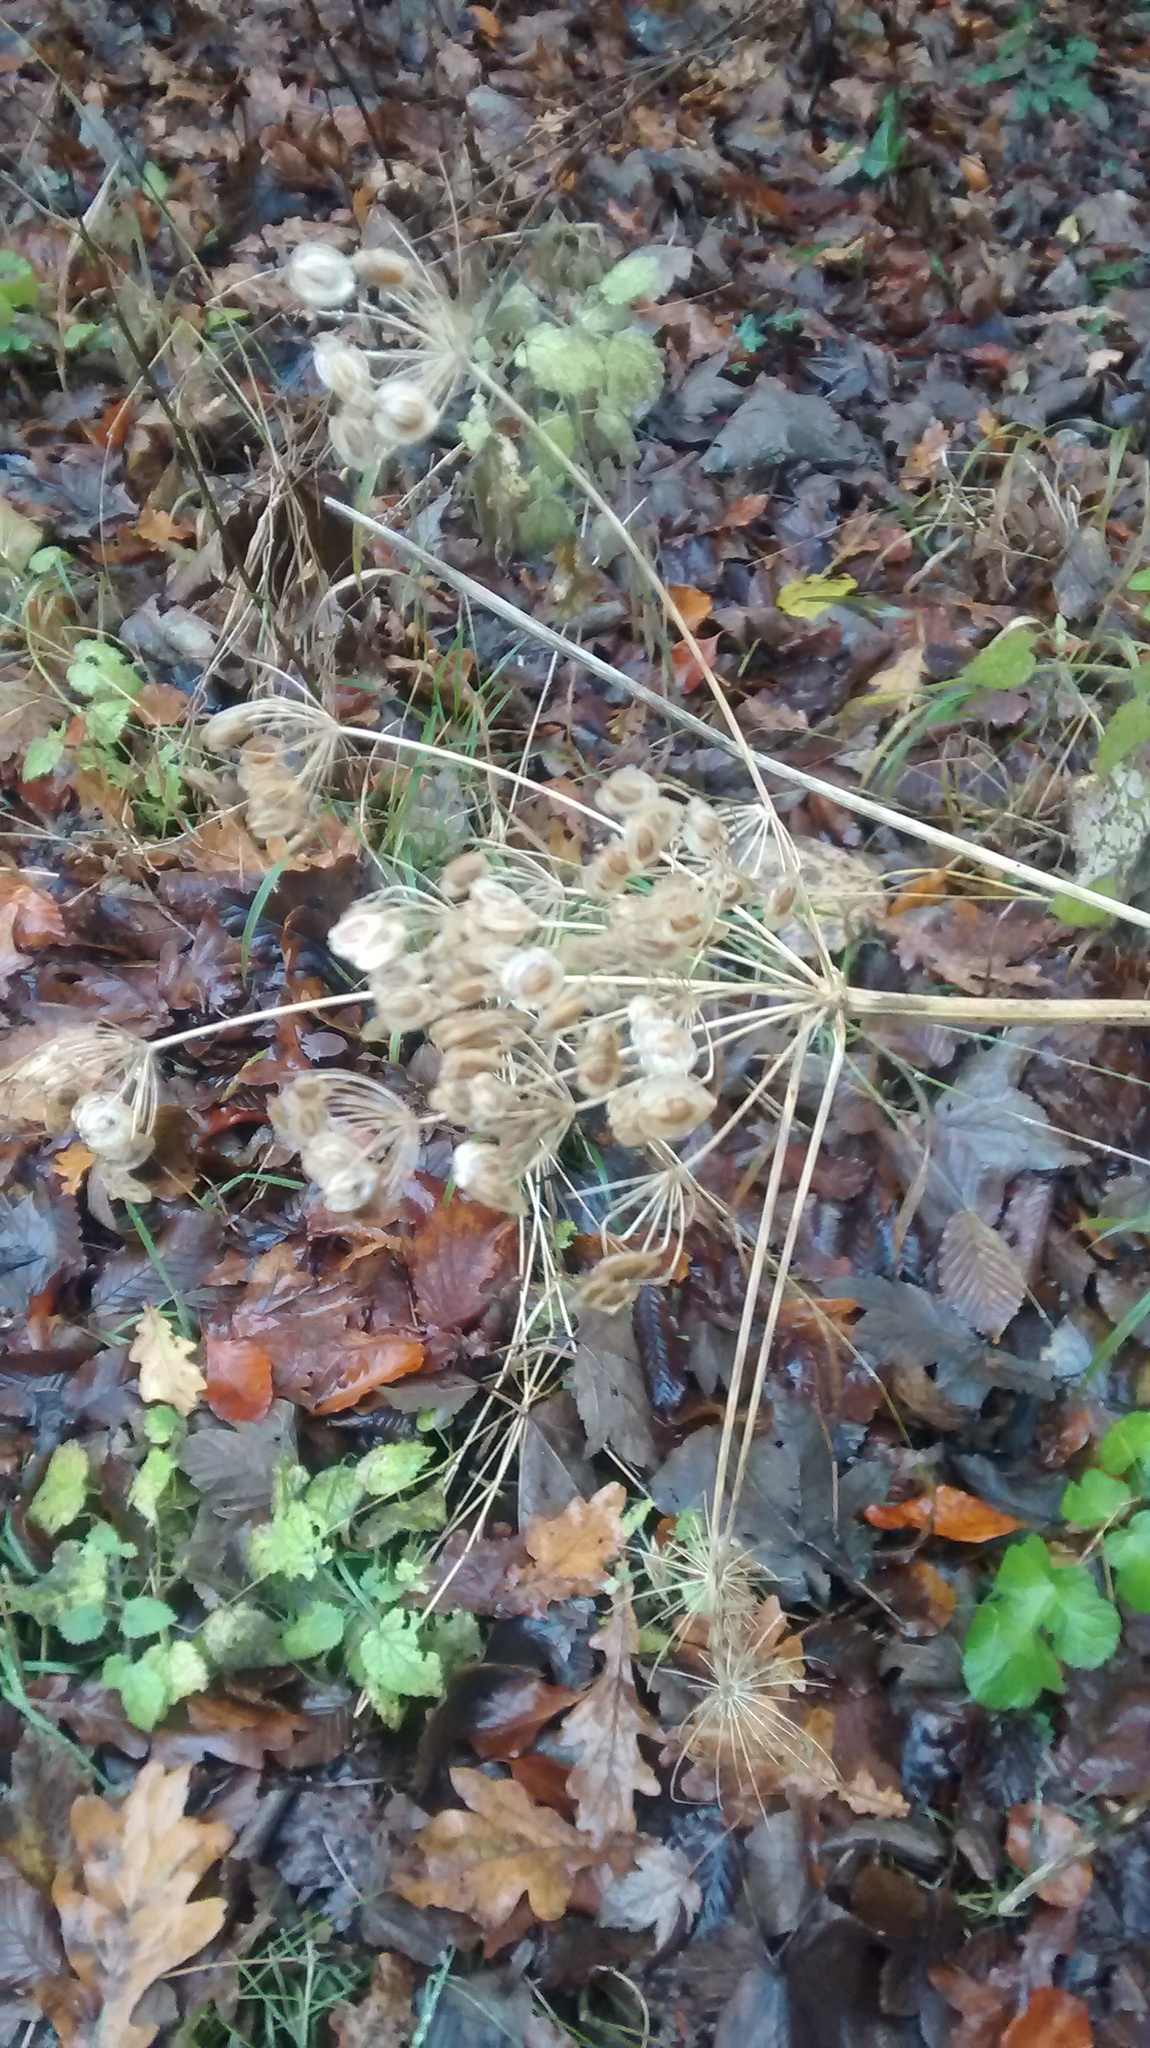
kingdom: Plantae
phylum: Tracheophyta
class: Magnoliopsida
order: Apiales
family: Apiaceae
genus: Heracleum
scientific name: Heracleum sphondylium
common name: Hogweed
